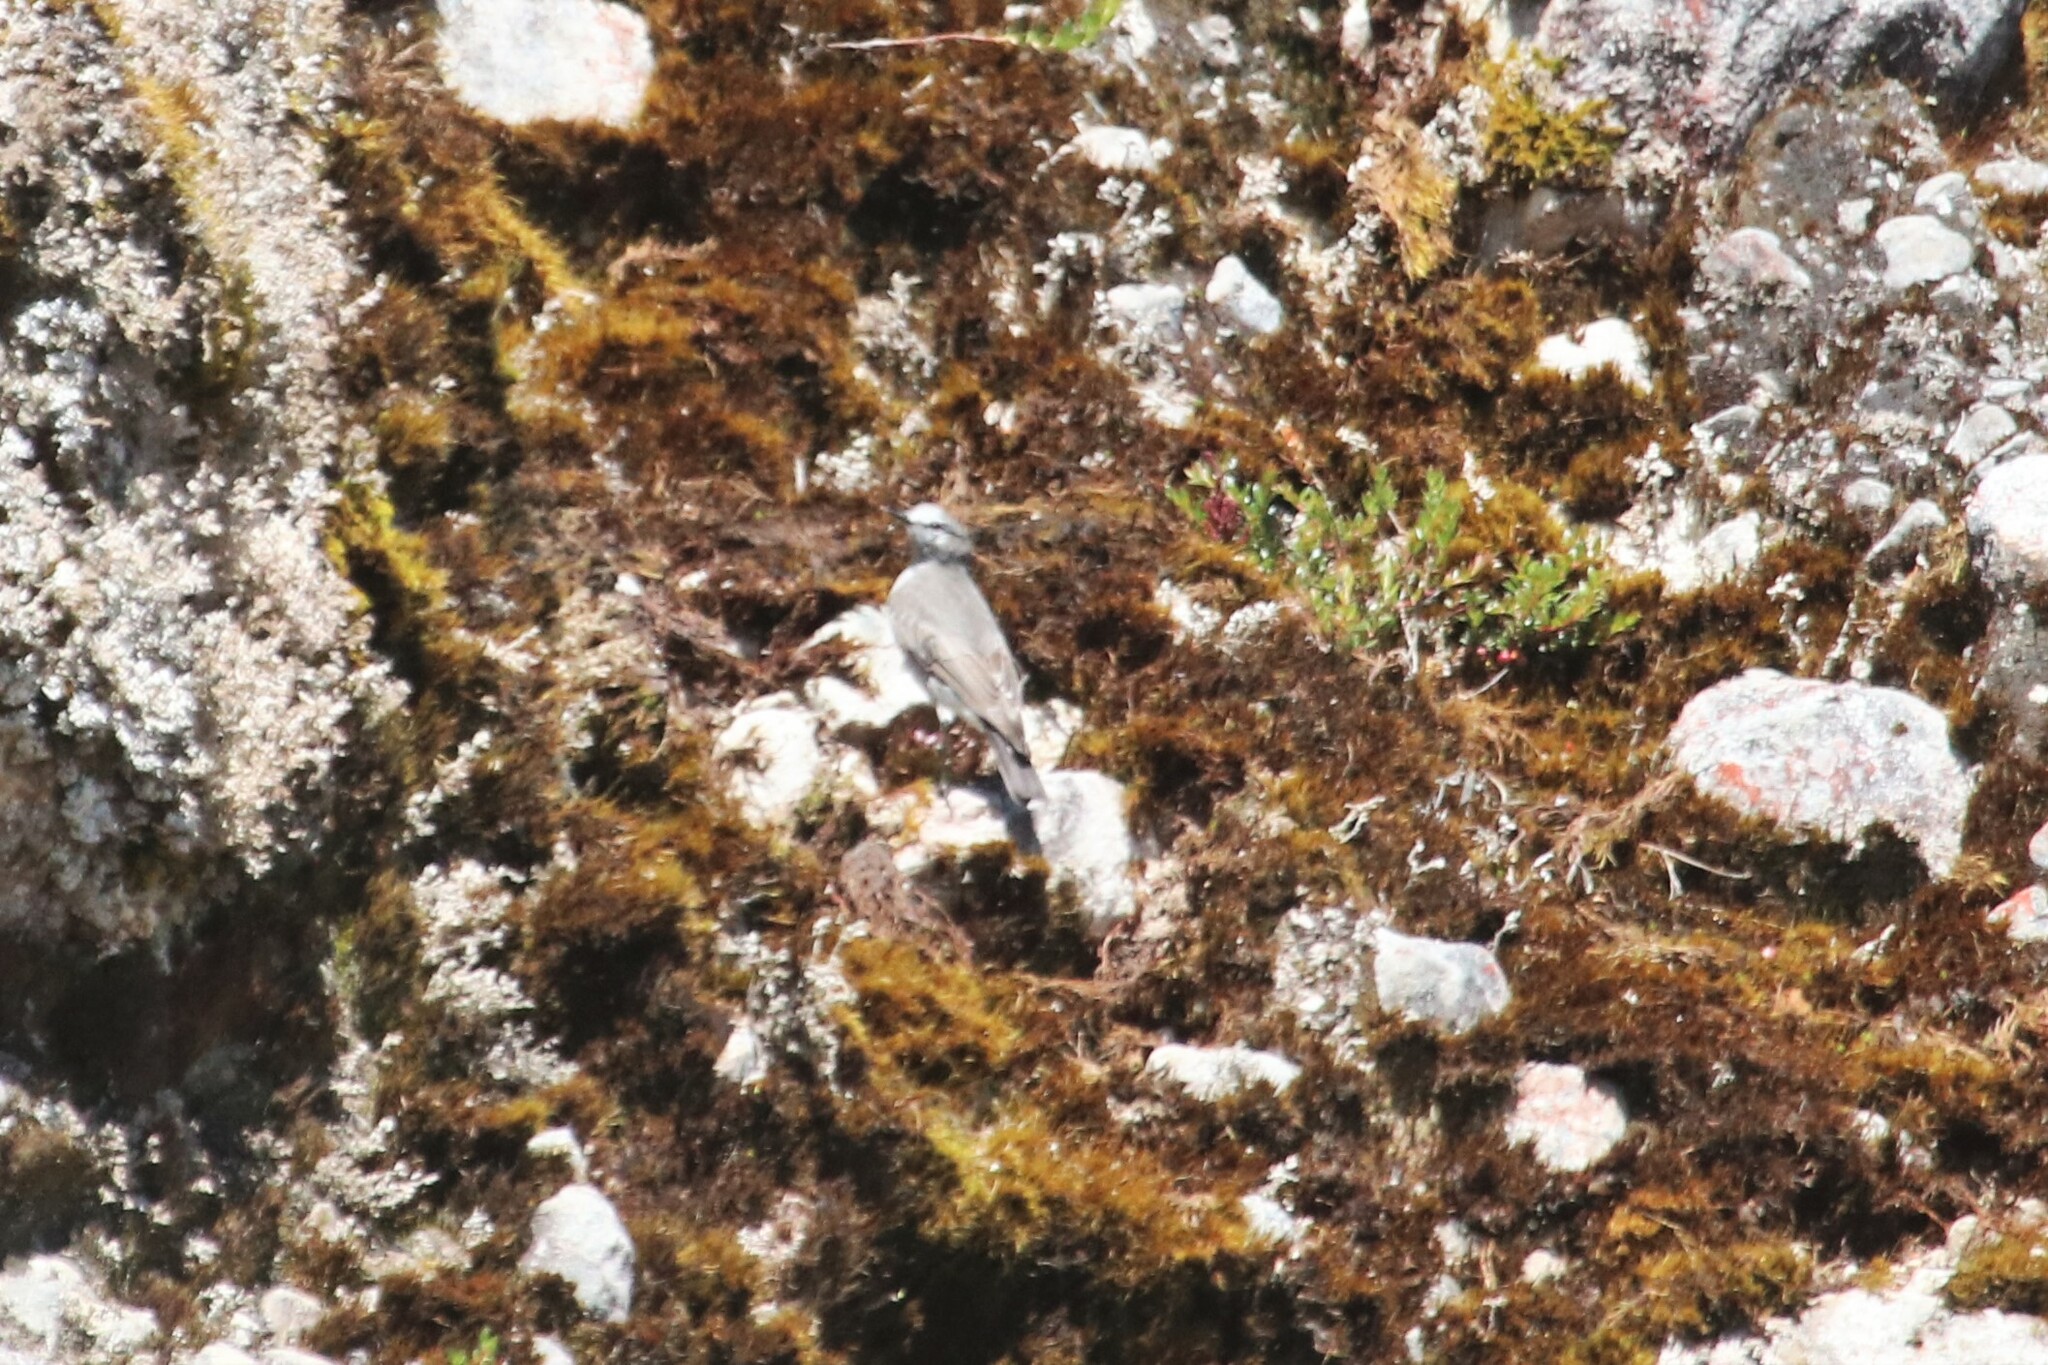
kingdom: Animalia
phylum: Chordata
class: Aves
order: Passeriformes
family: Tyrannidae
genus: Muscisaxicola
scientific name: Muscisaxicola alpinus
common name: Paramo ground tyrant
